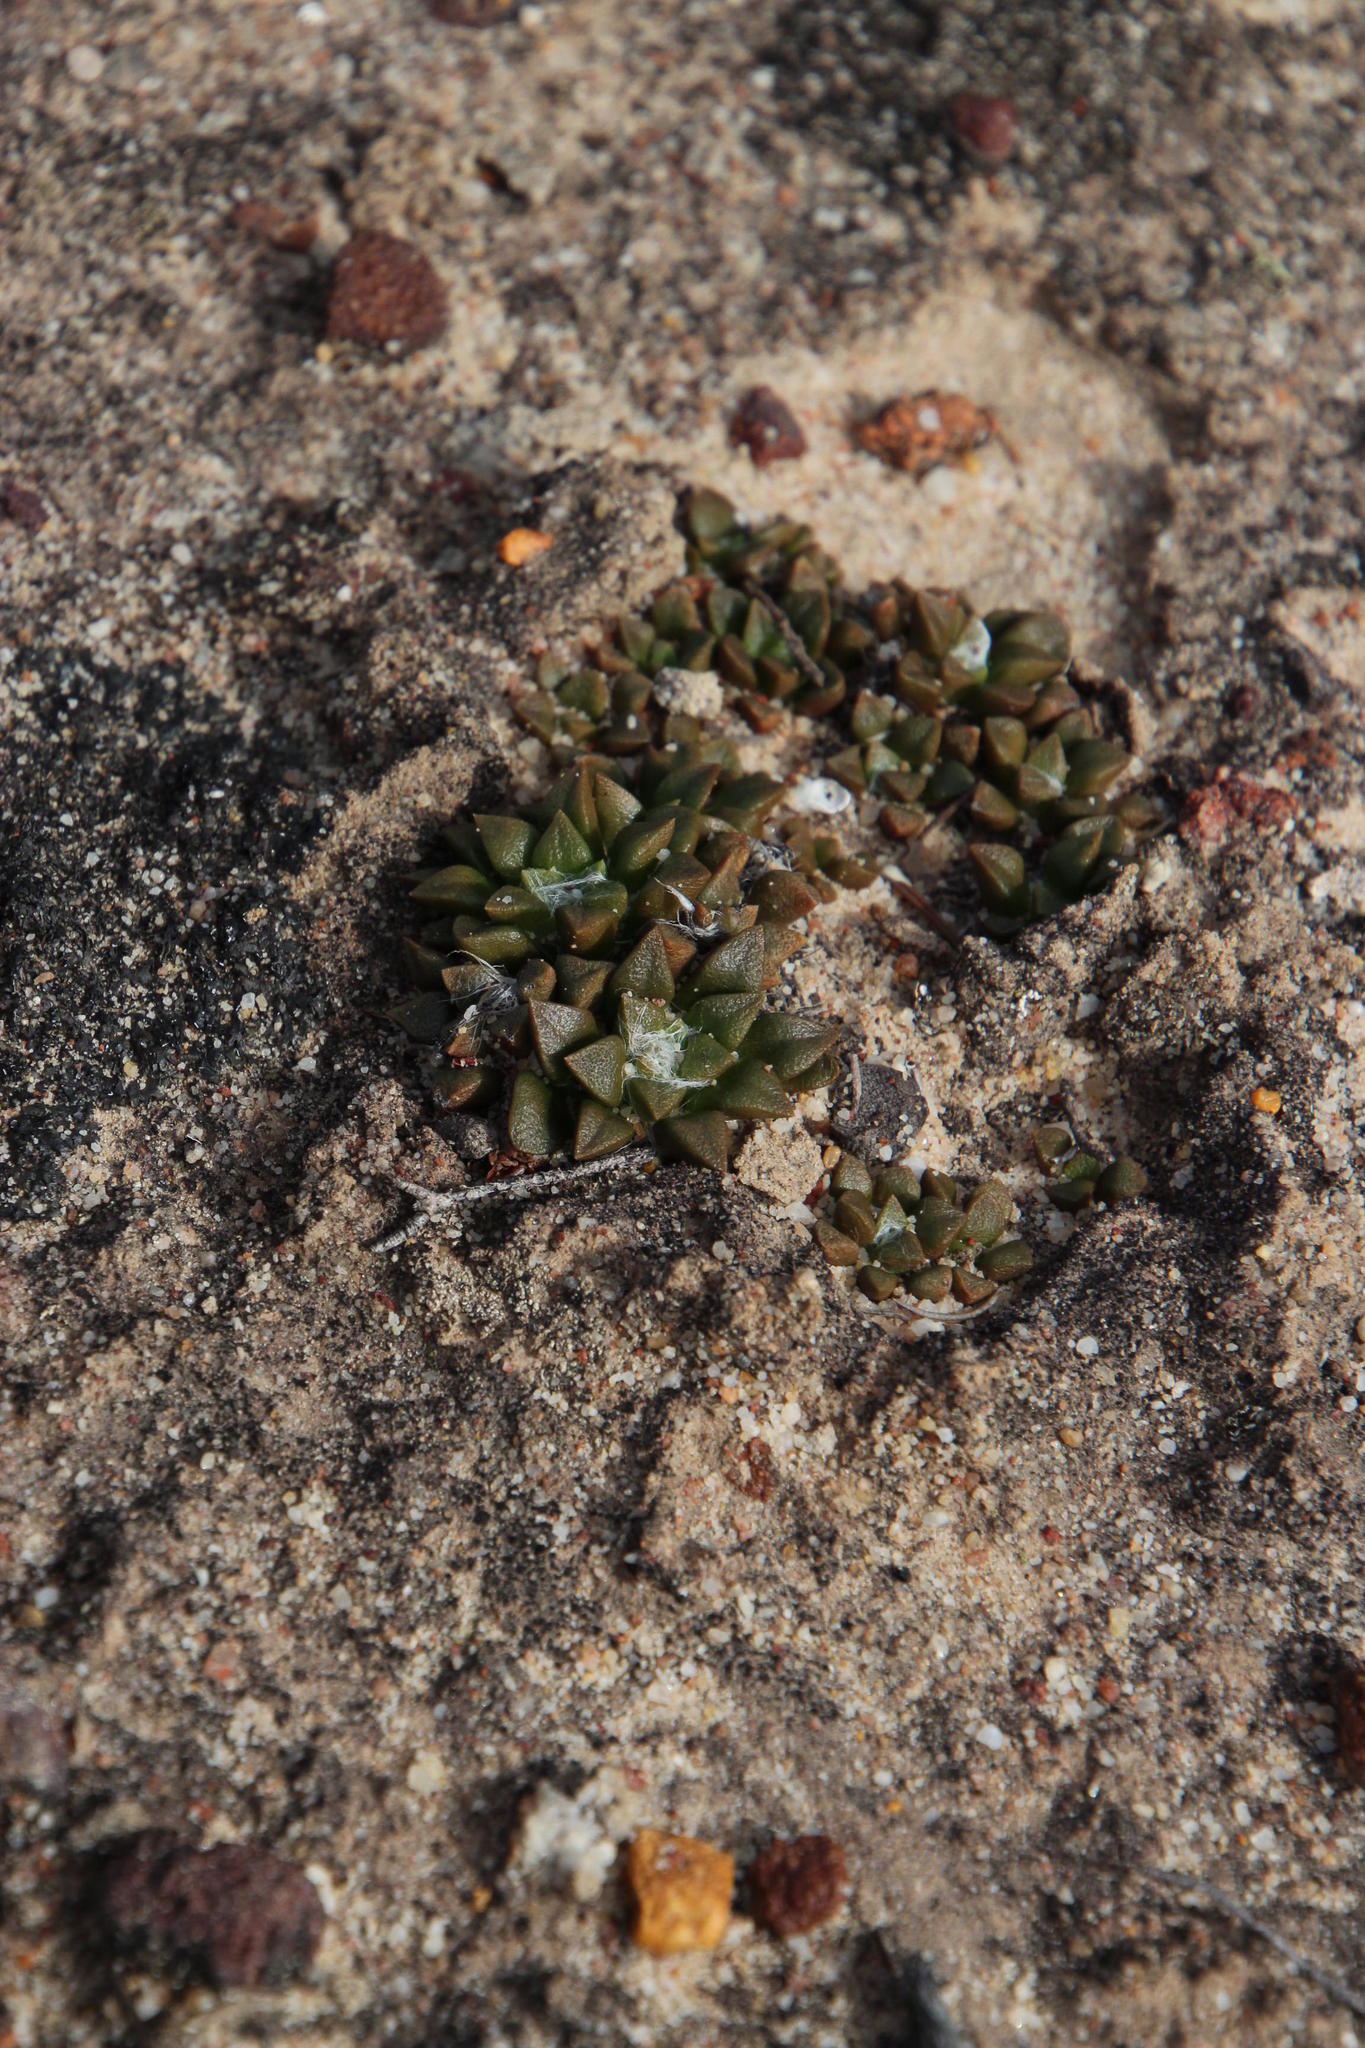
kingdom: Plantae
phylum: Tracheophyta
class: Magnoliopsida
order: Caryophyllales
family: Anacampserotaceae
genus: Anacampseros
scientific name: Anacampseros retusa
